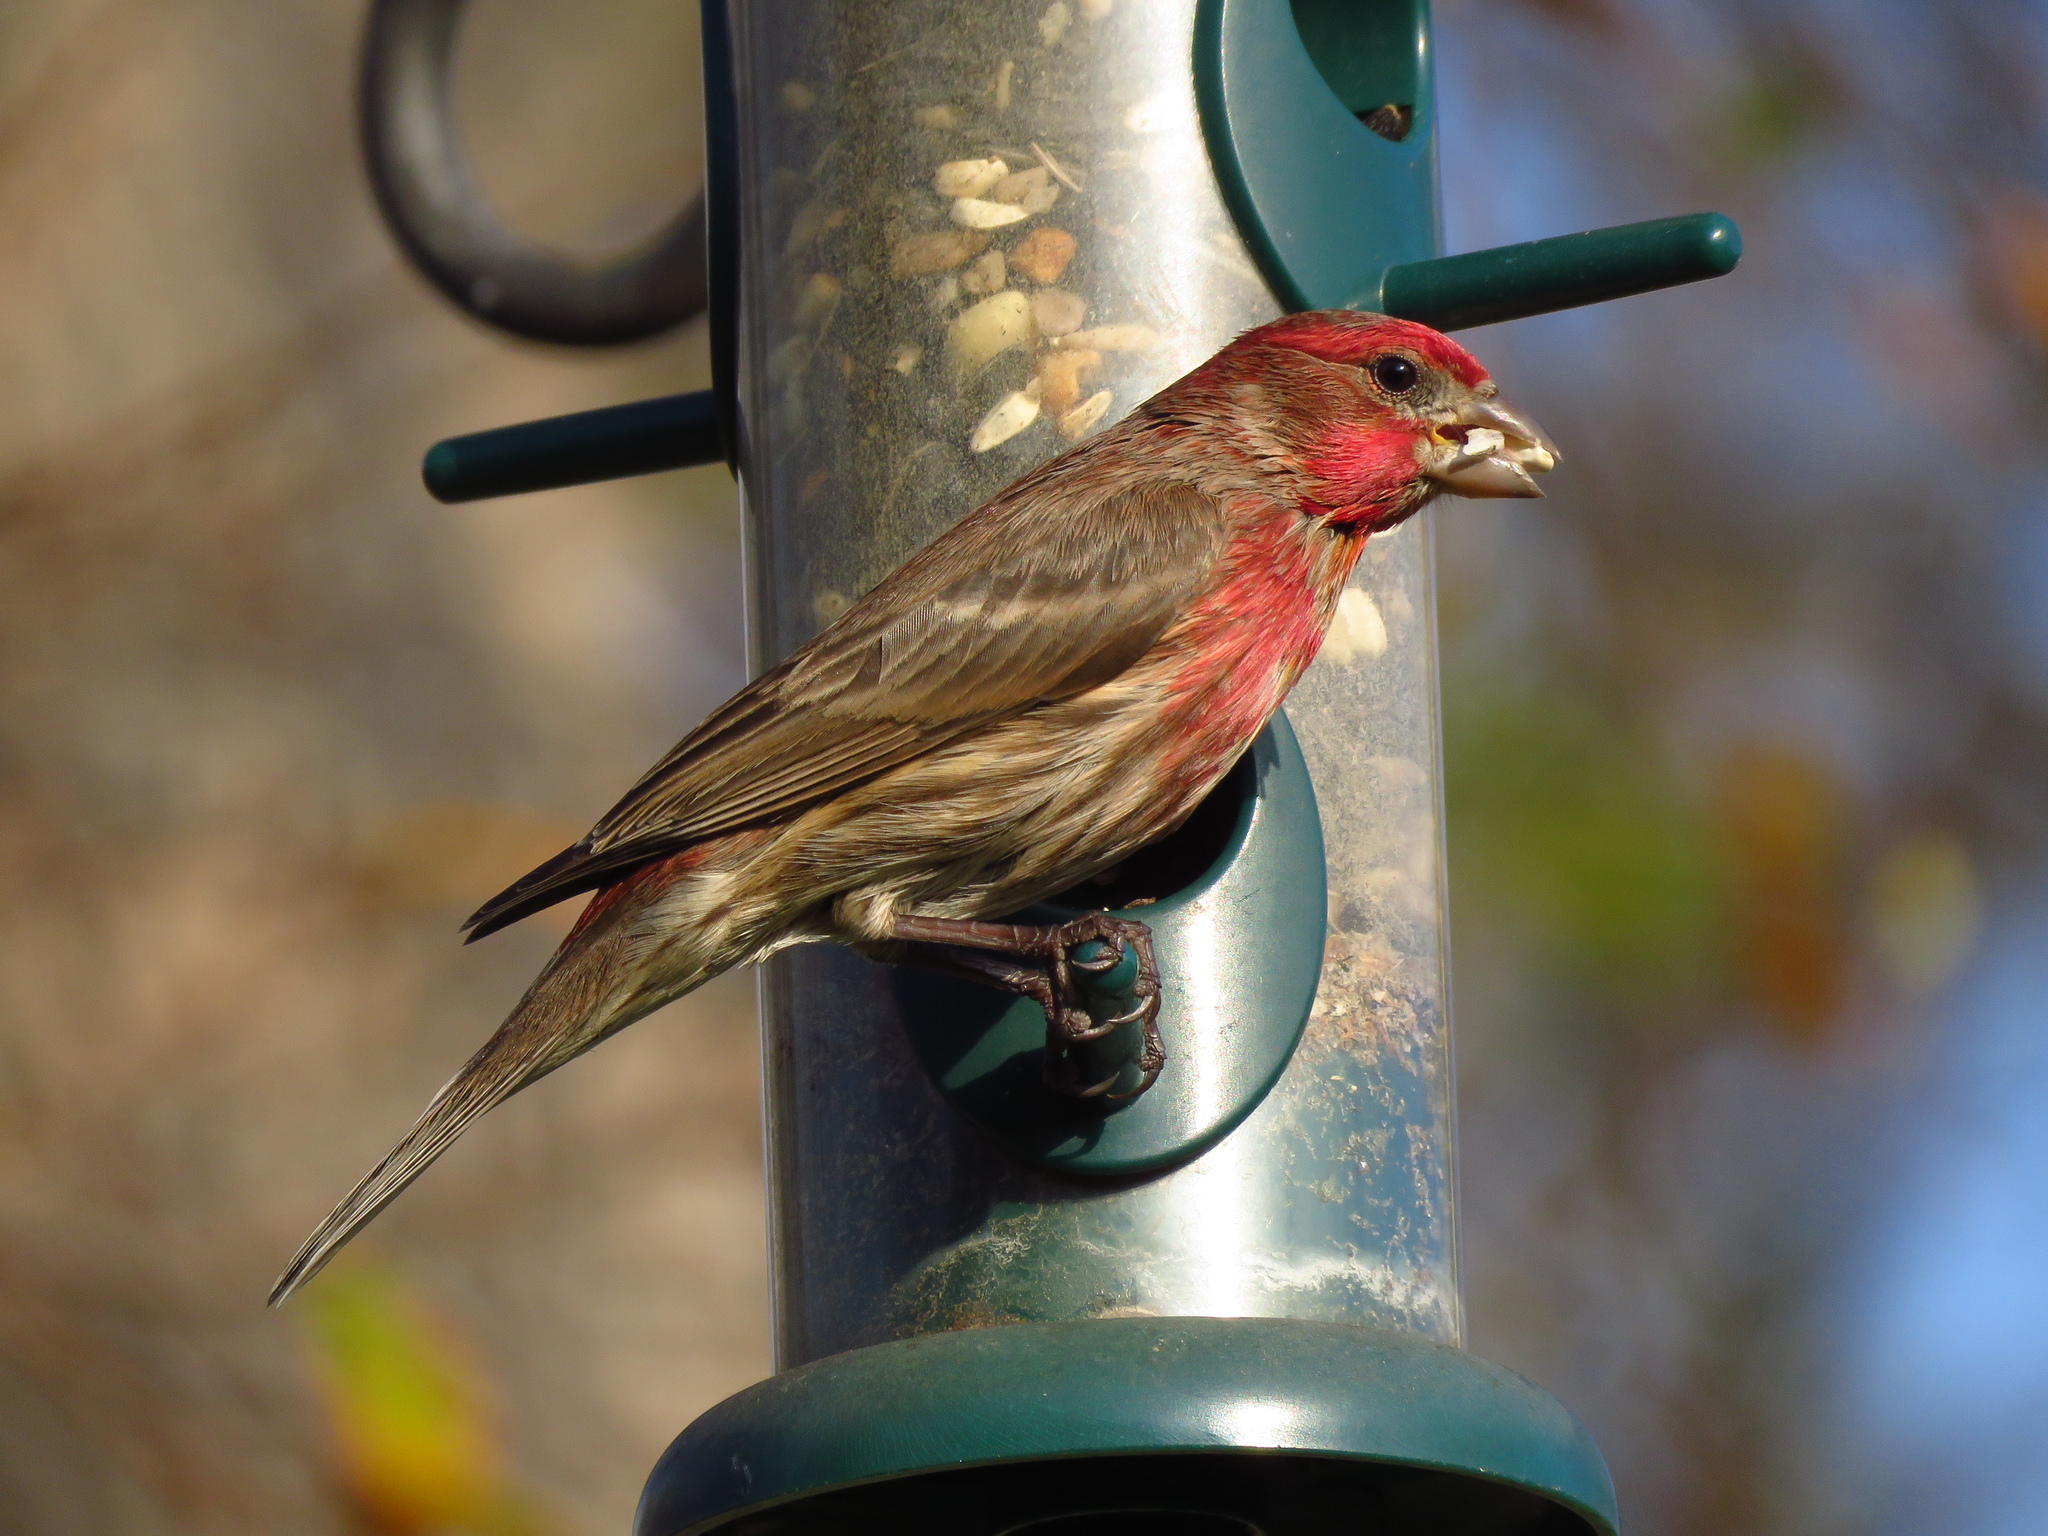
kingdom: Animalia
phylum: Chordata
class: Aves
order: Passeriformes
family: Fringillidae
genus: Haemorhous
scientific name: Haemorhous mexicanus
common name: House finch
